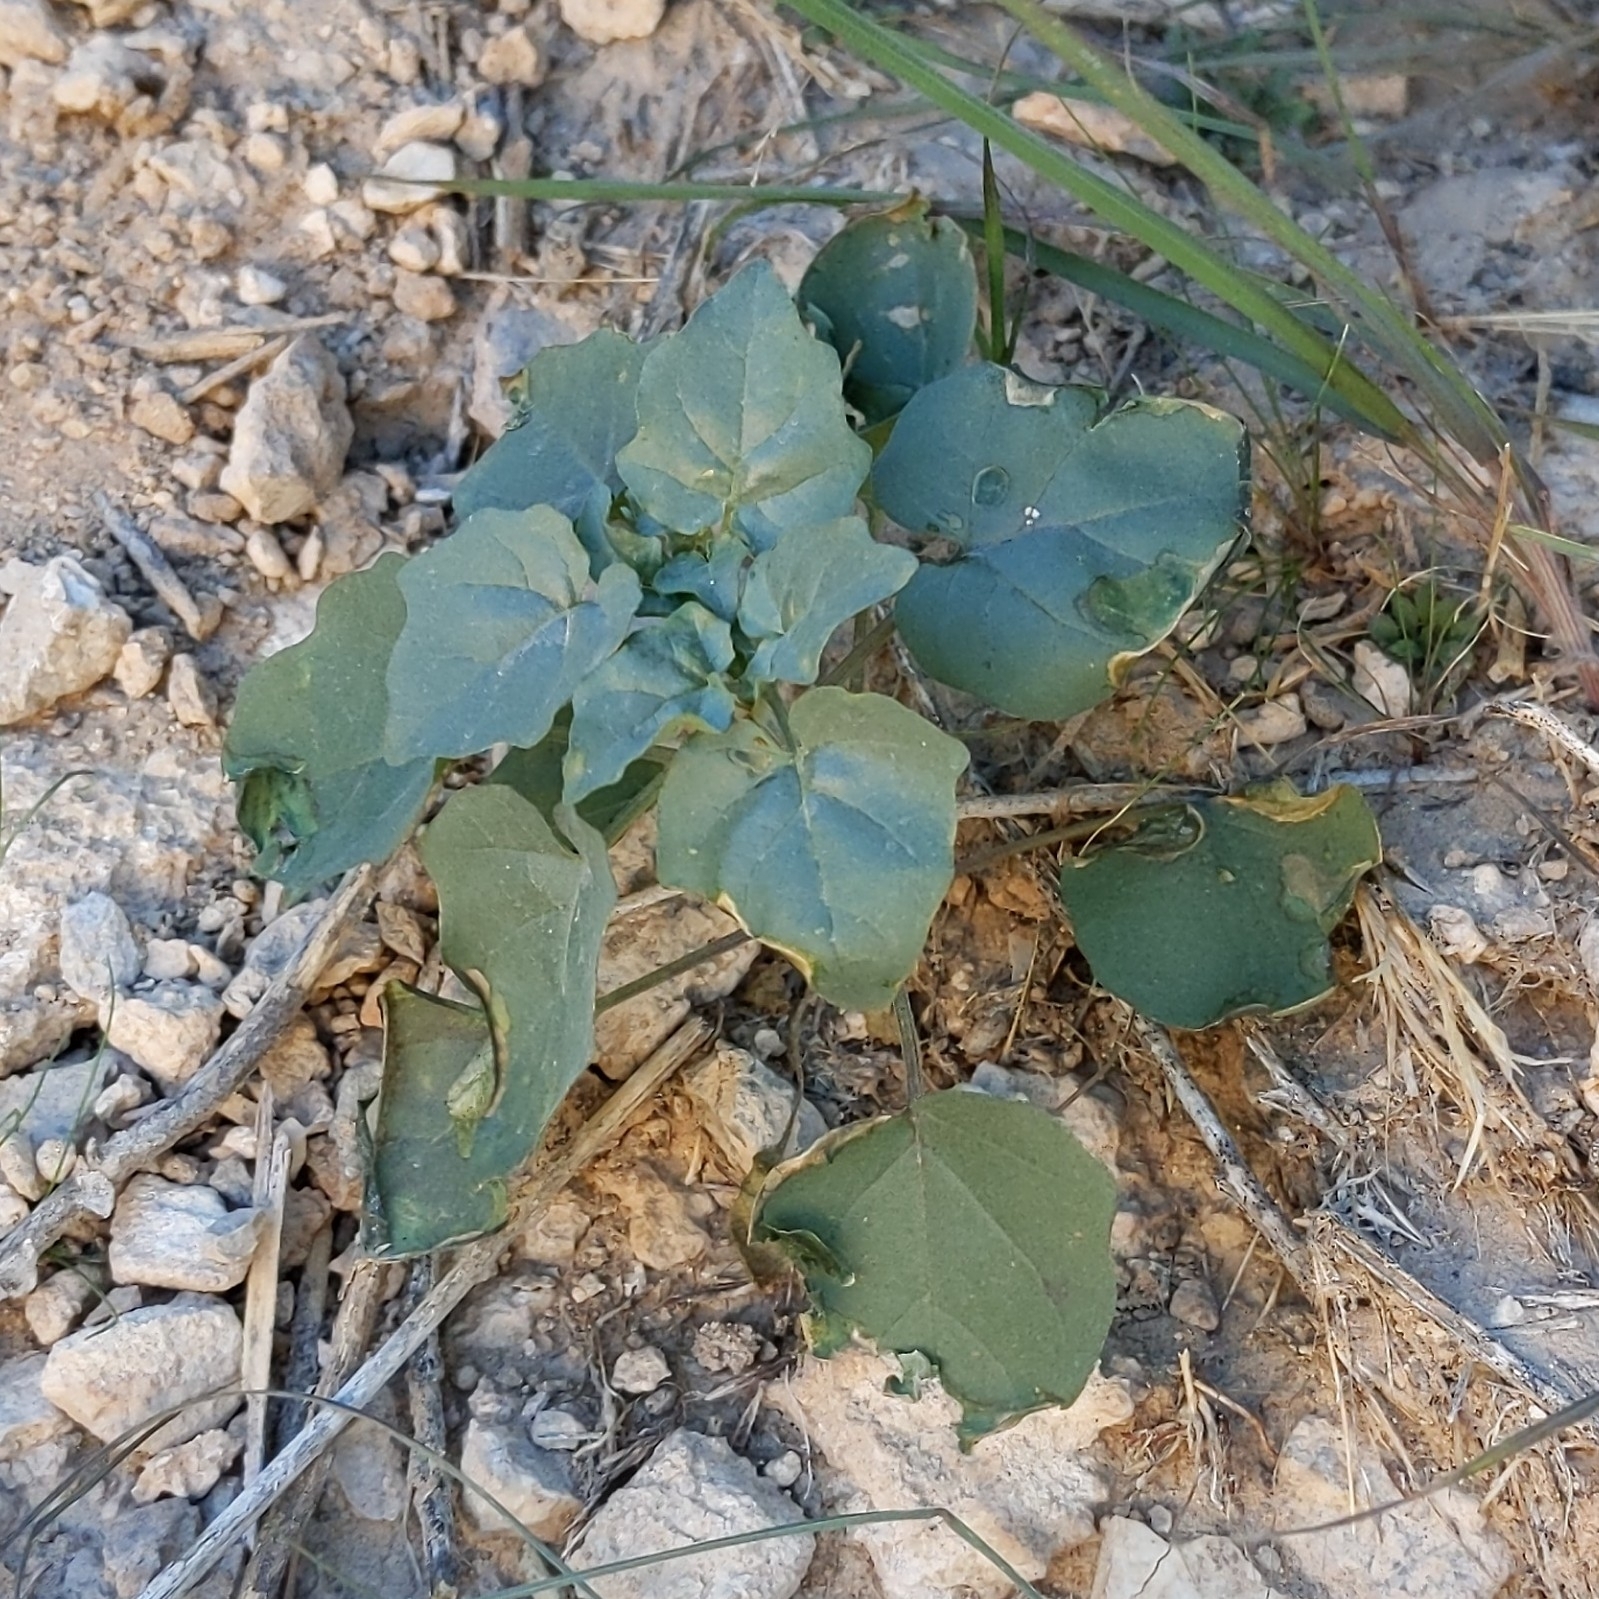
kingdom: Plantae
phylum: Tracheophyta
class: Magnoliopsida
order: Solanales
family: Solanaceae
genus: Physalis
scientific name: Physalis crassifolia
